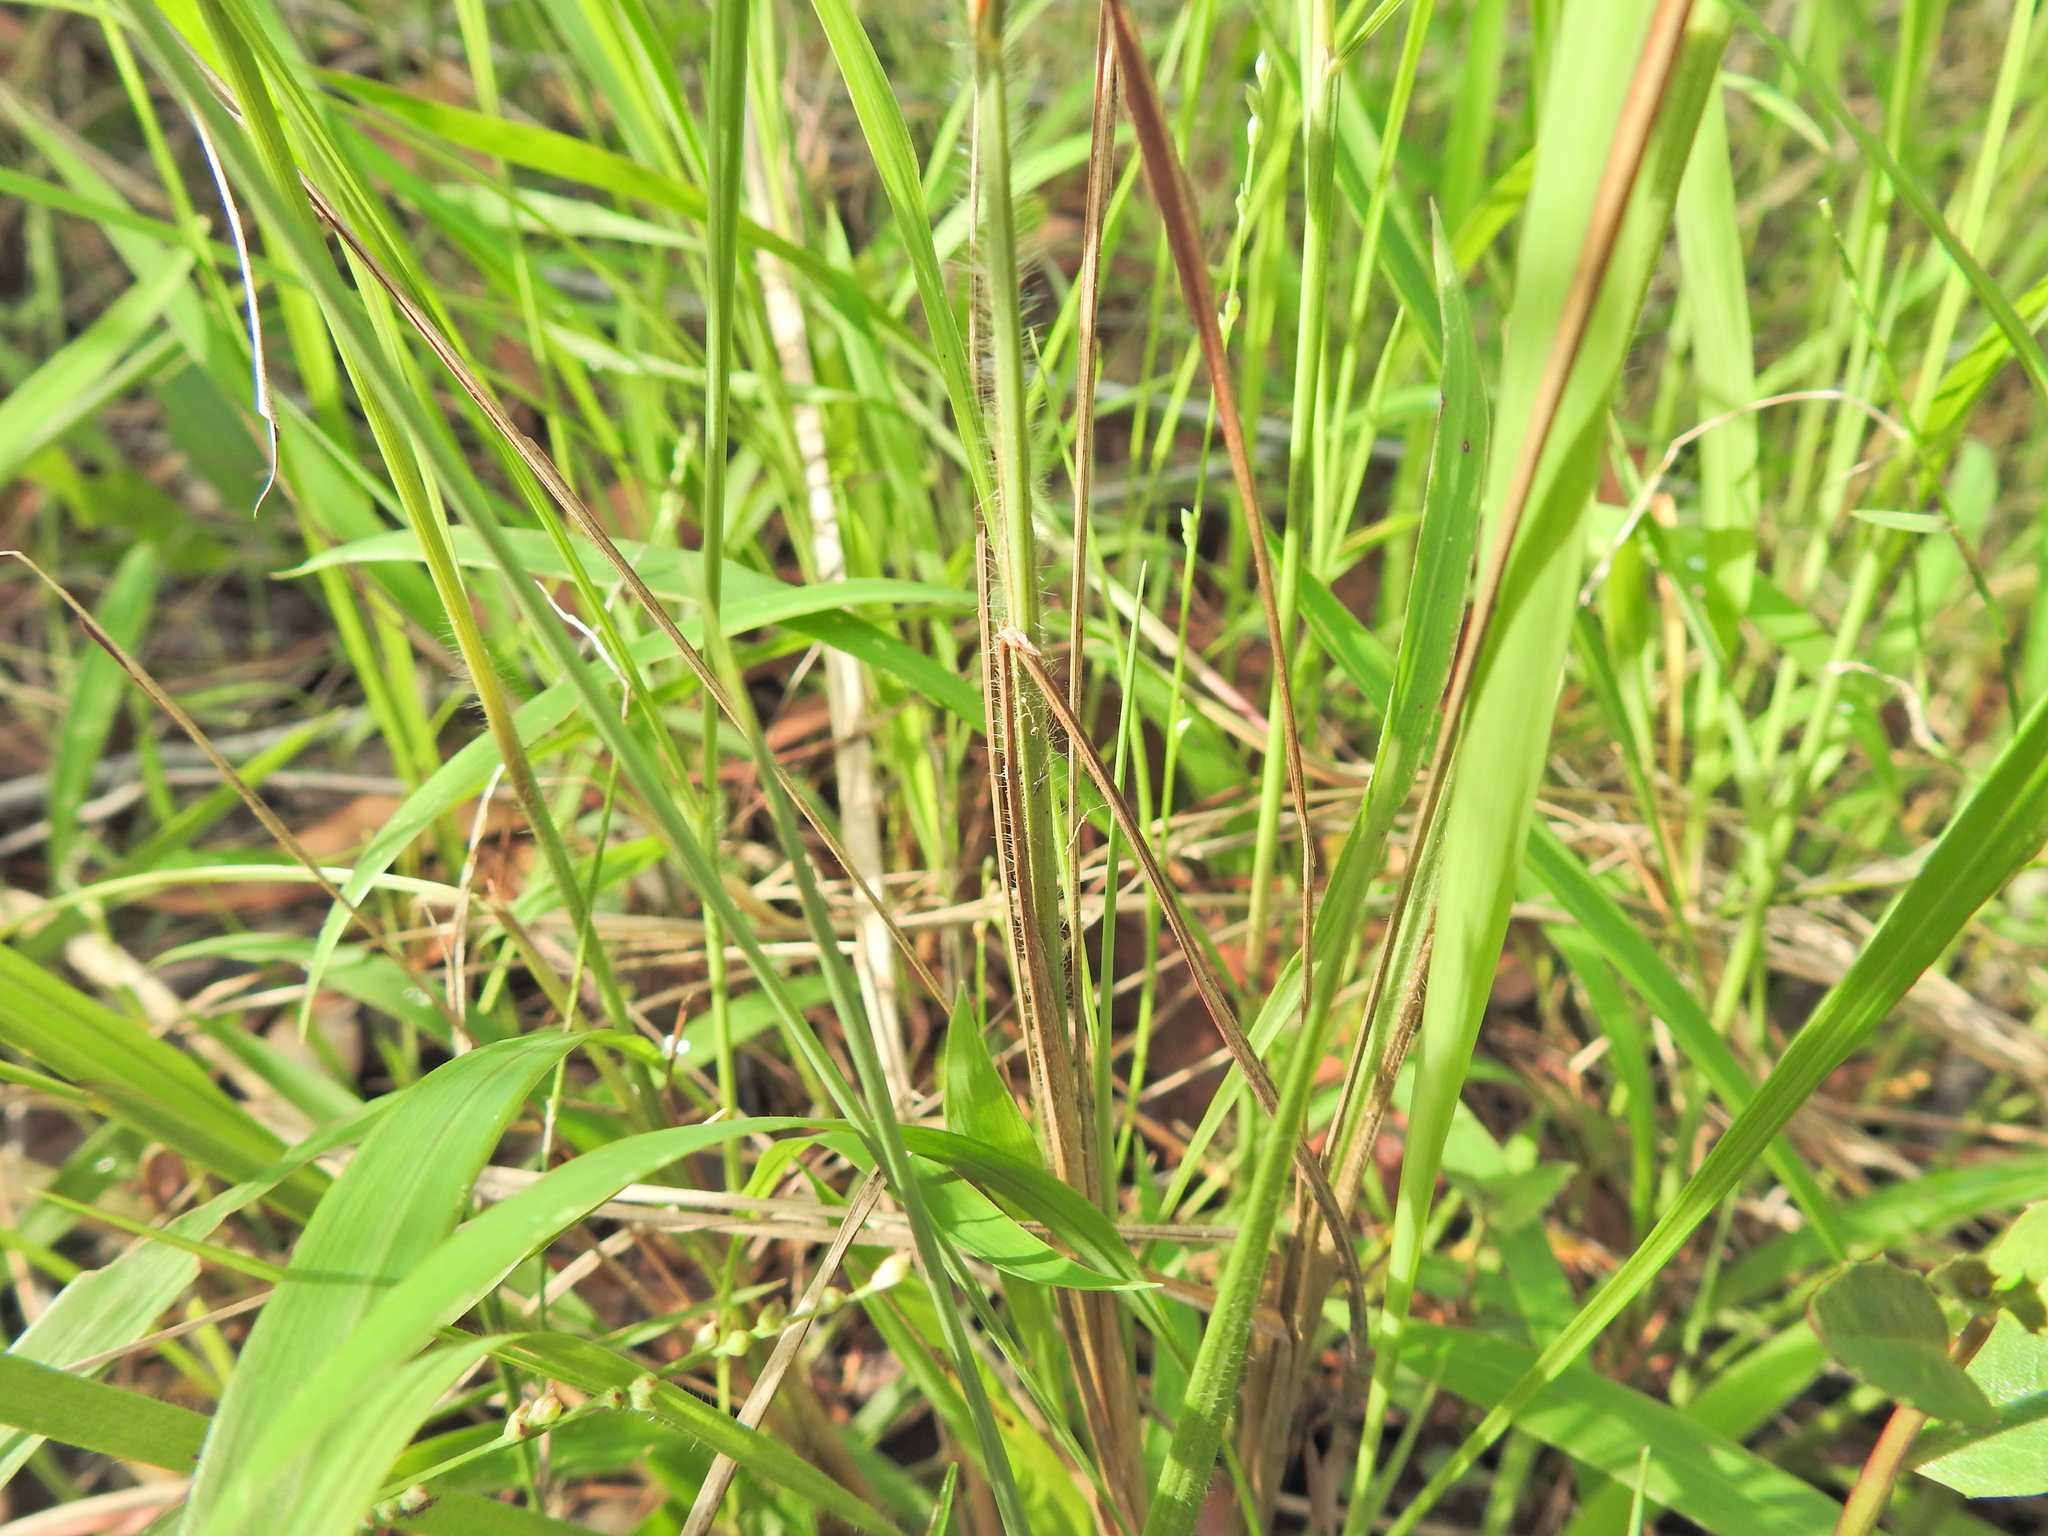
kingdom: Plantae
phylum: Tracheophyta
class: Liliopsida
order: Poales
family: Poaceae
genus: Ischaemum
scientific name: Ischaemum australe
